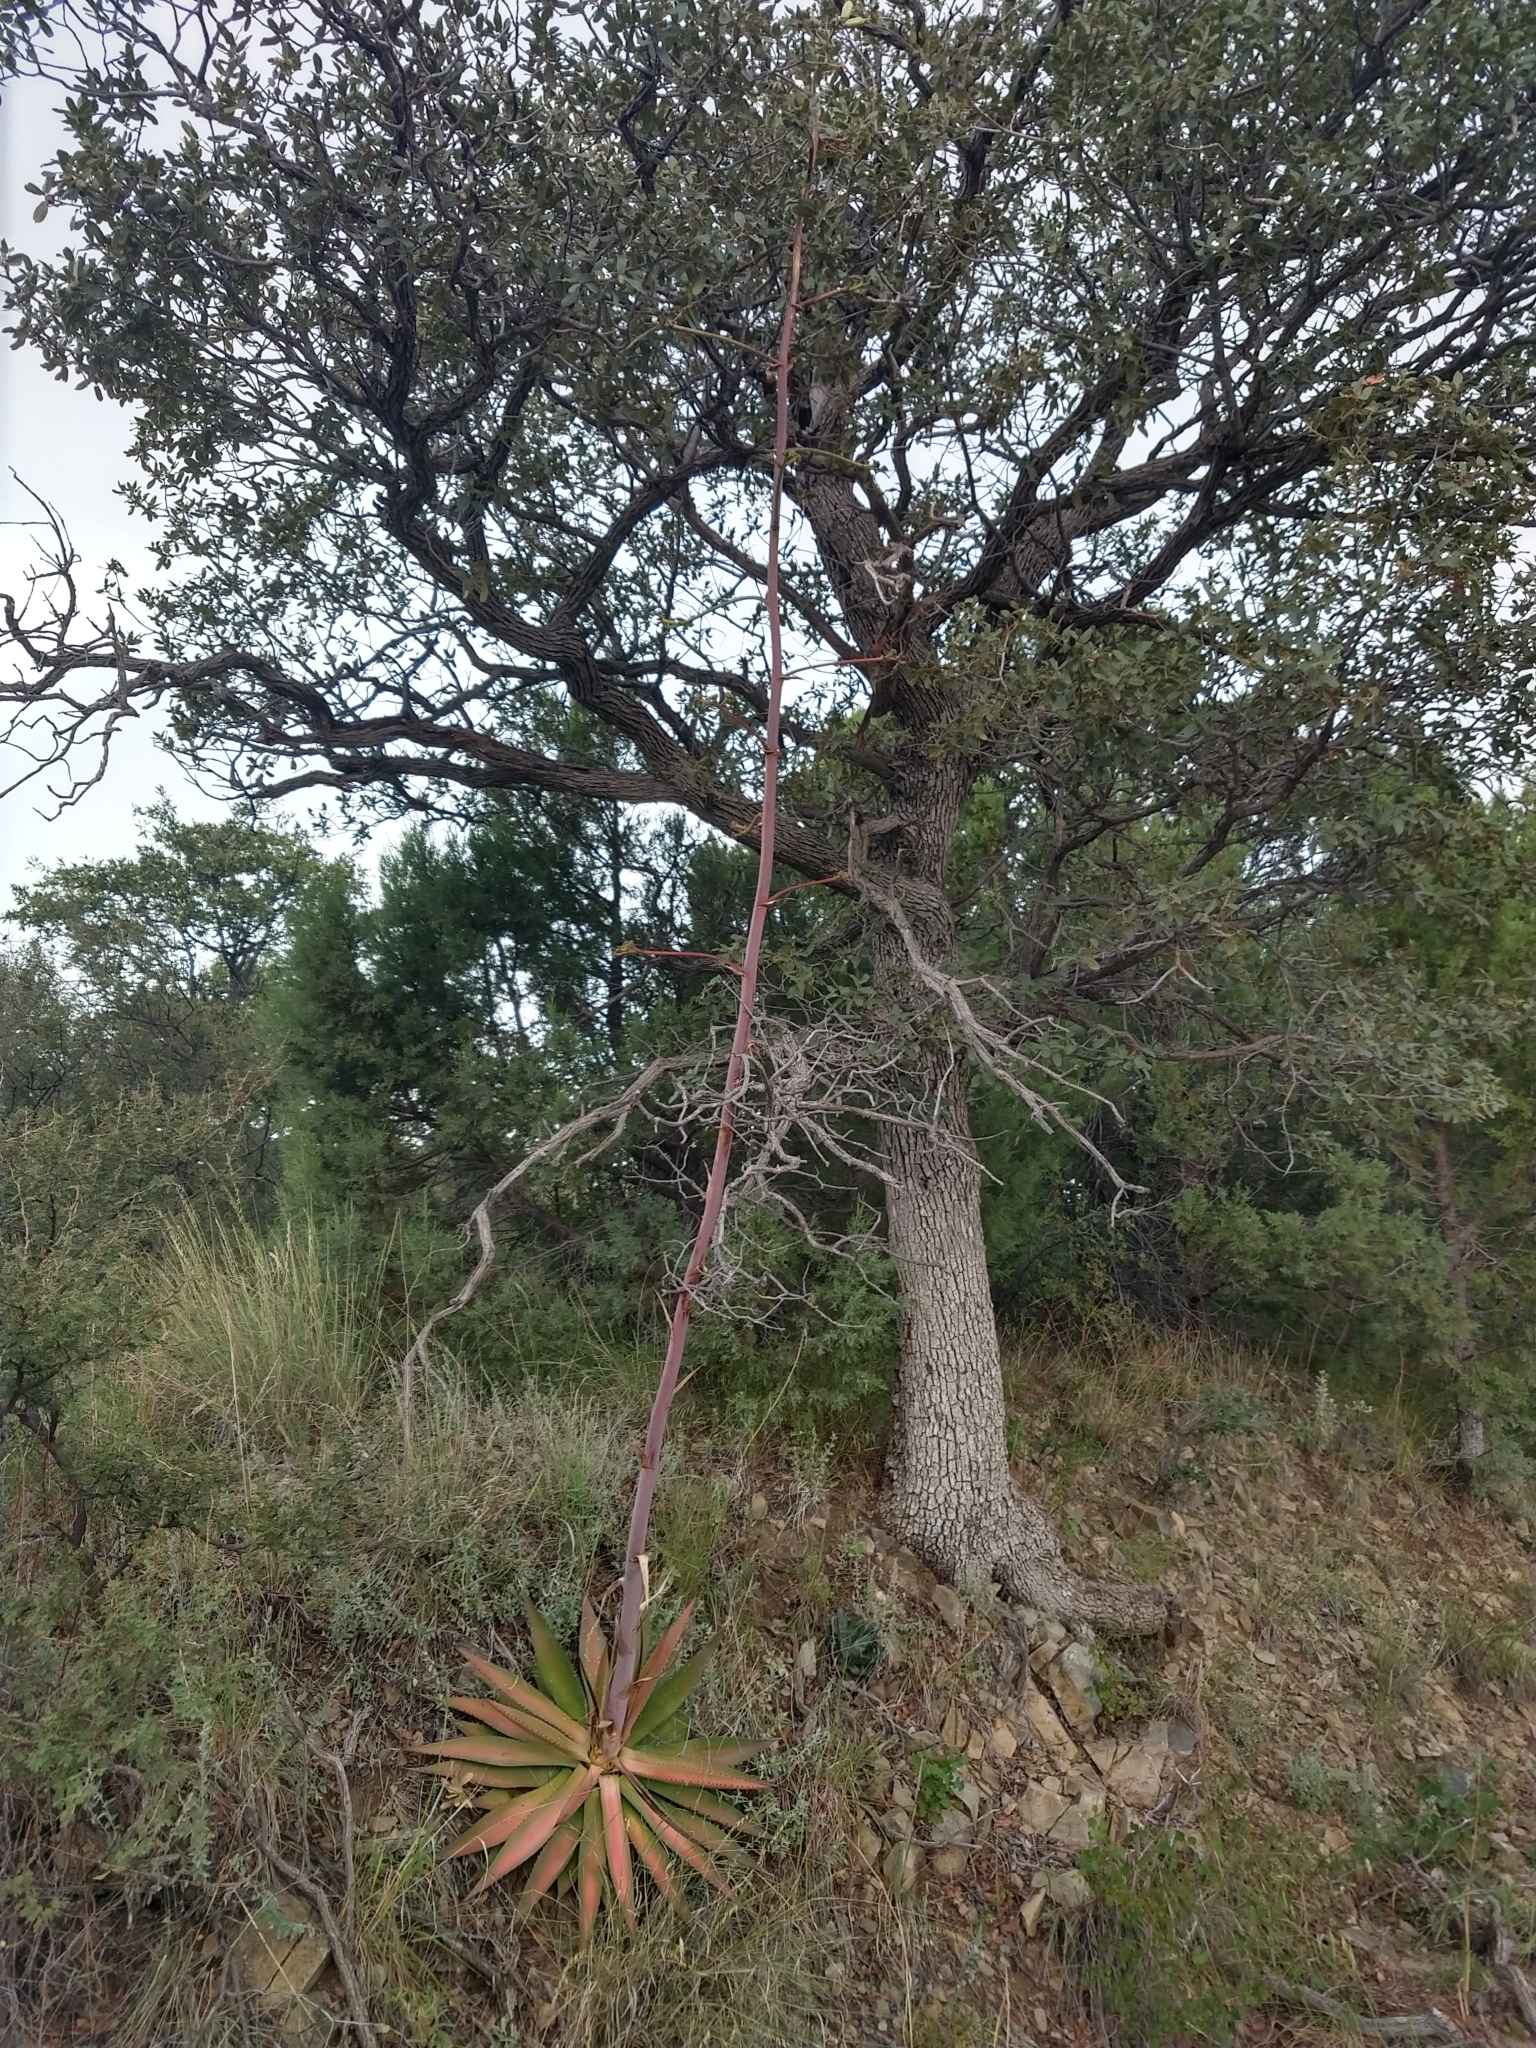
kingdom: Plantae
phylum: Tracheophyta
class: Liliopsida
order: Asparagales
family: Asparagaceae
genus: Agave
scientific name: Agave palmeri
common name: Palmer agave
